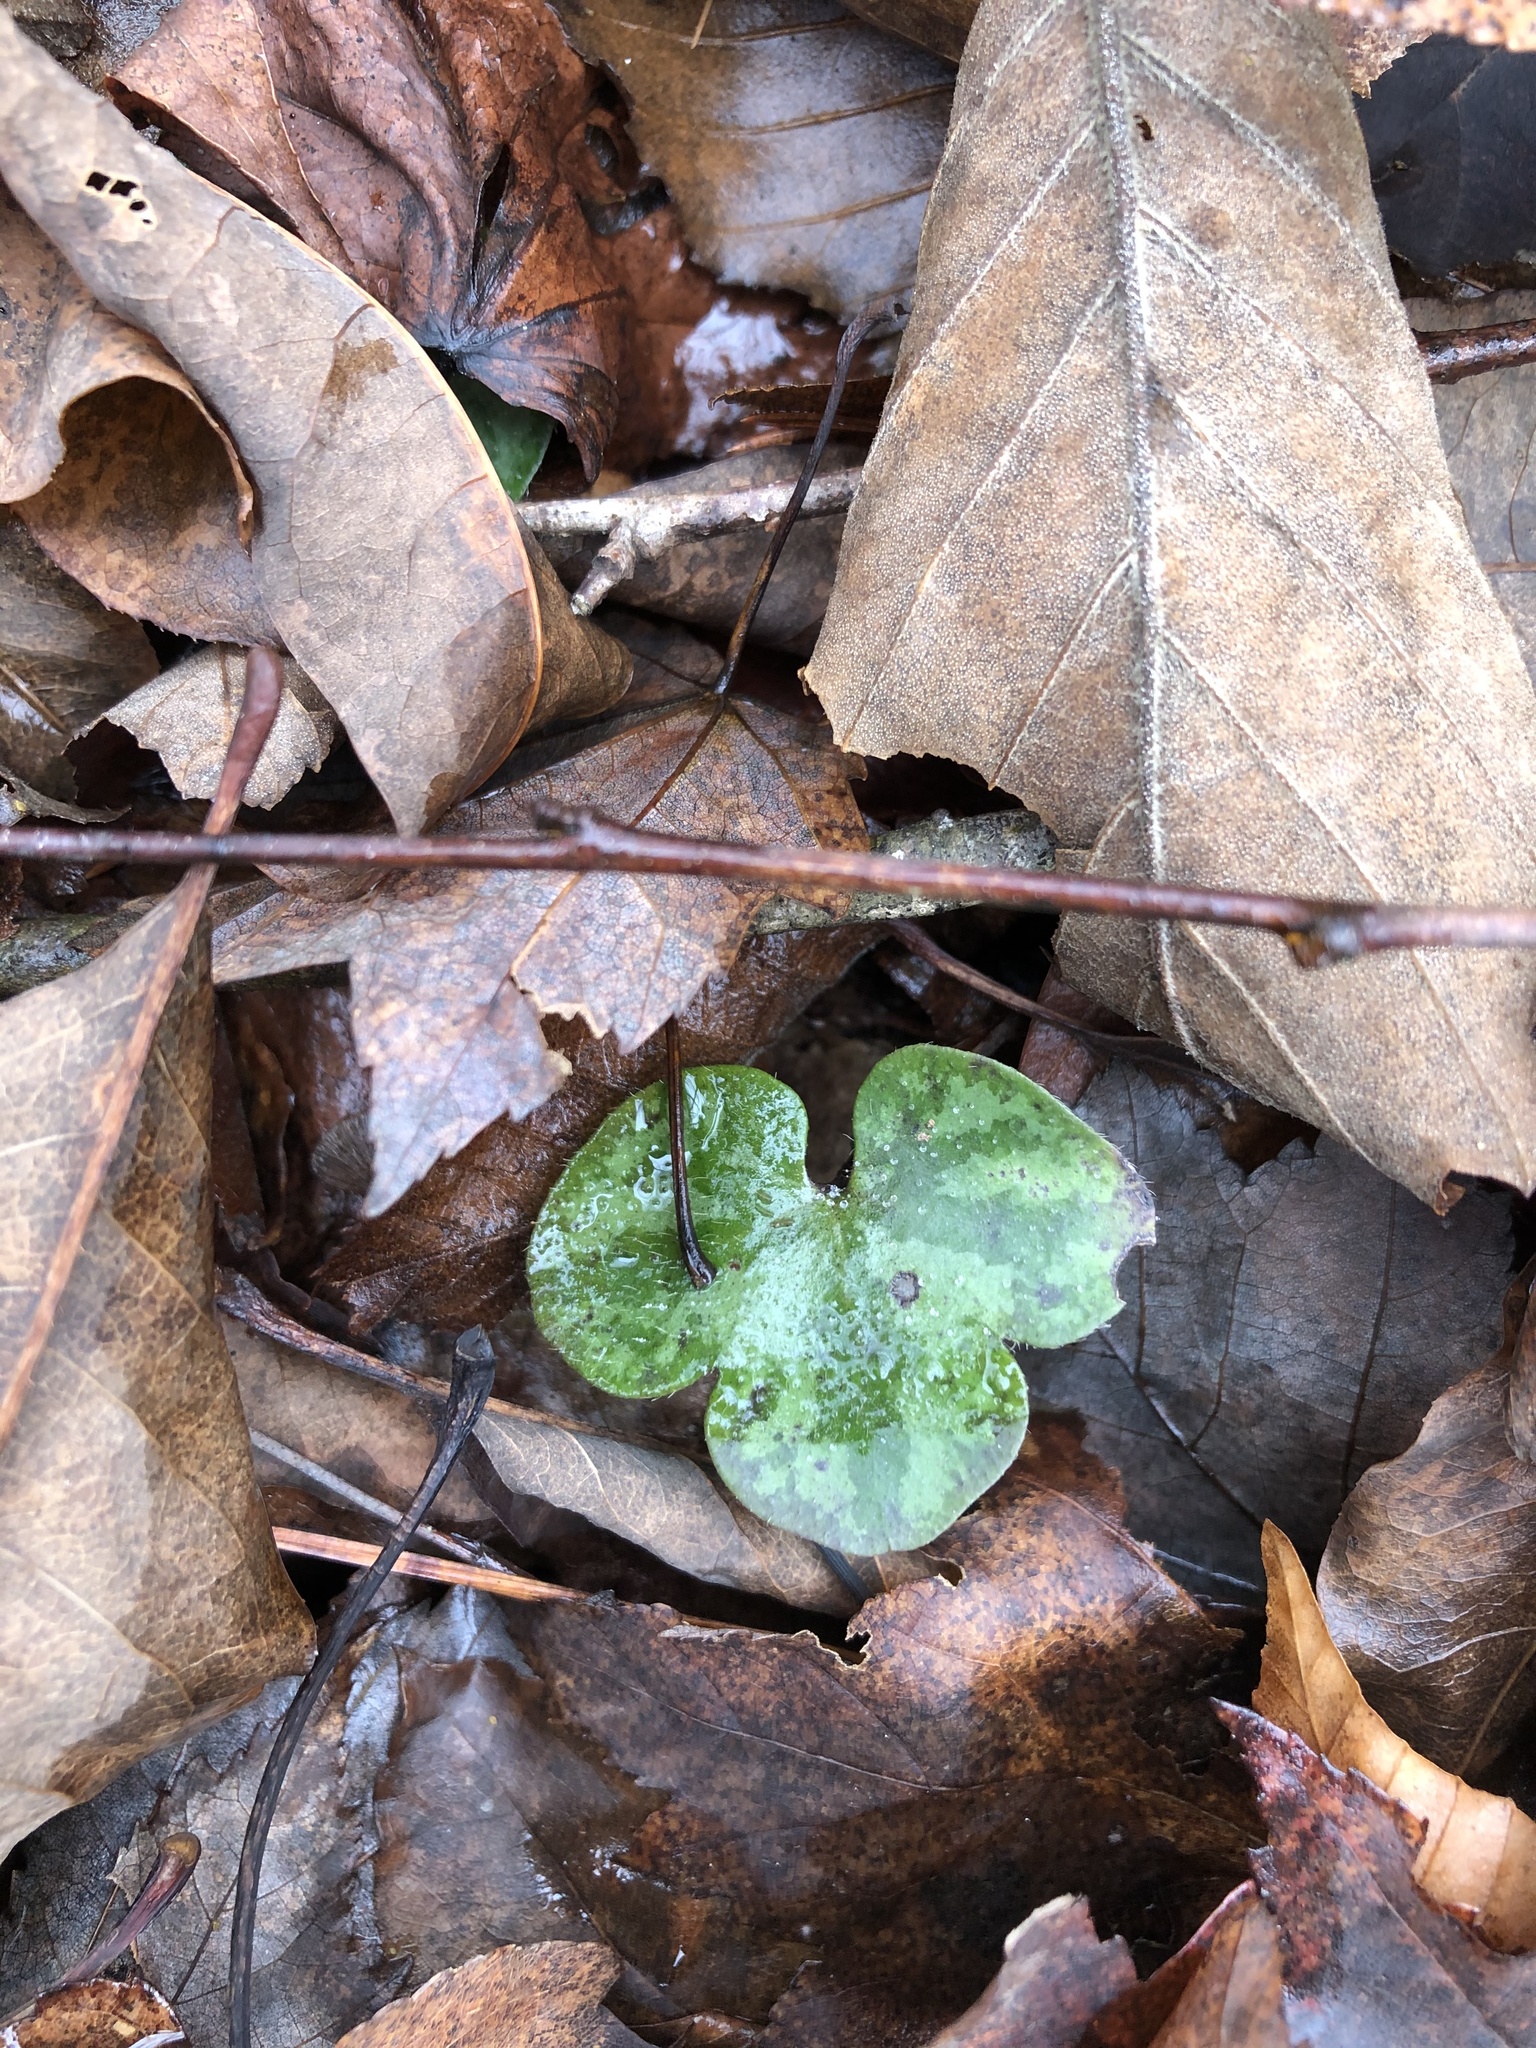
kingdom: Plantae
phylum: Tracheophyta
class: Magnoliopsida
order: Ranunculales
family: Ranunculaceae
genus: Hepatica
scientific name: Hepatica americana
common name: American hepatica
